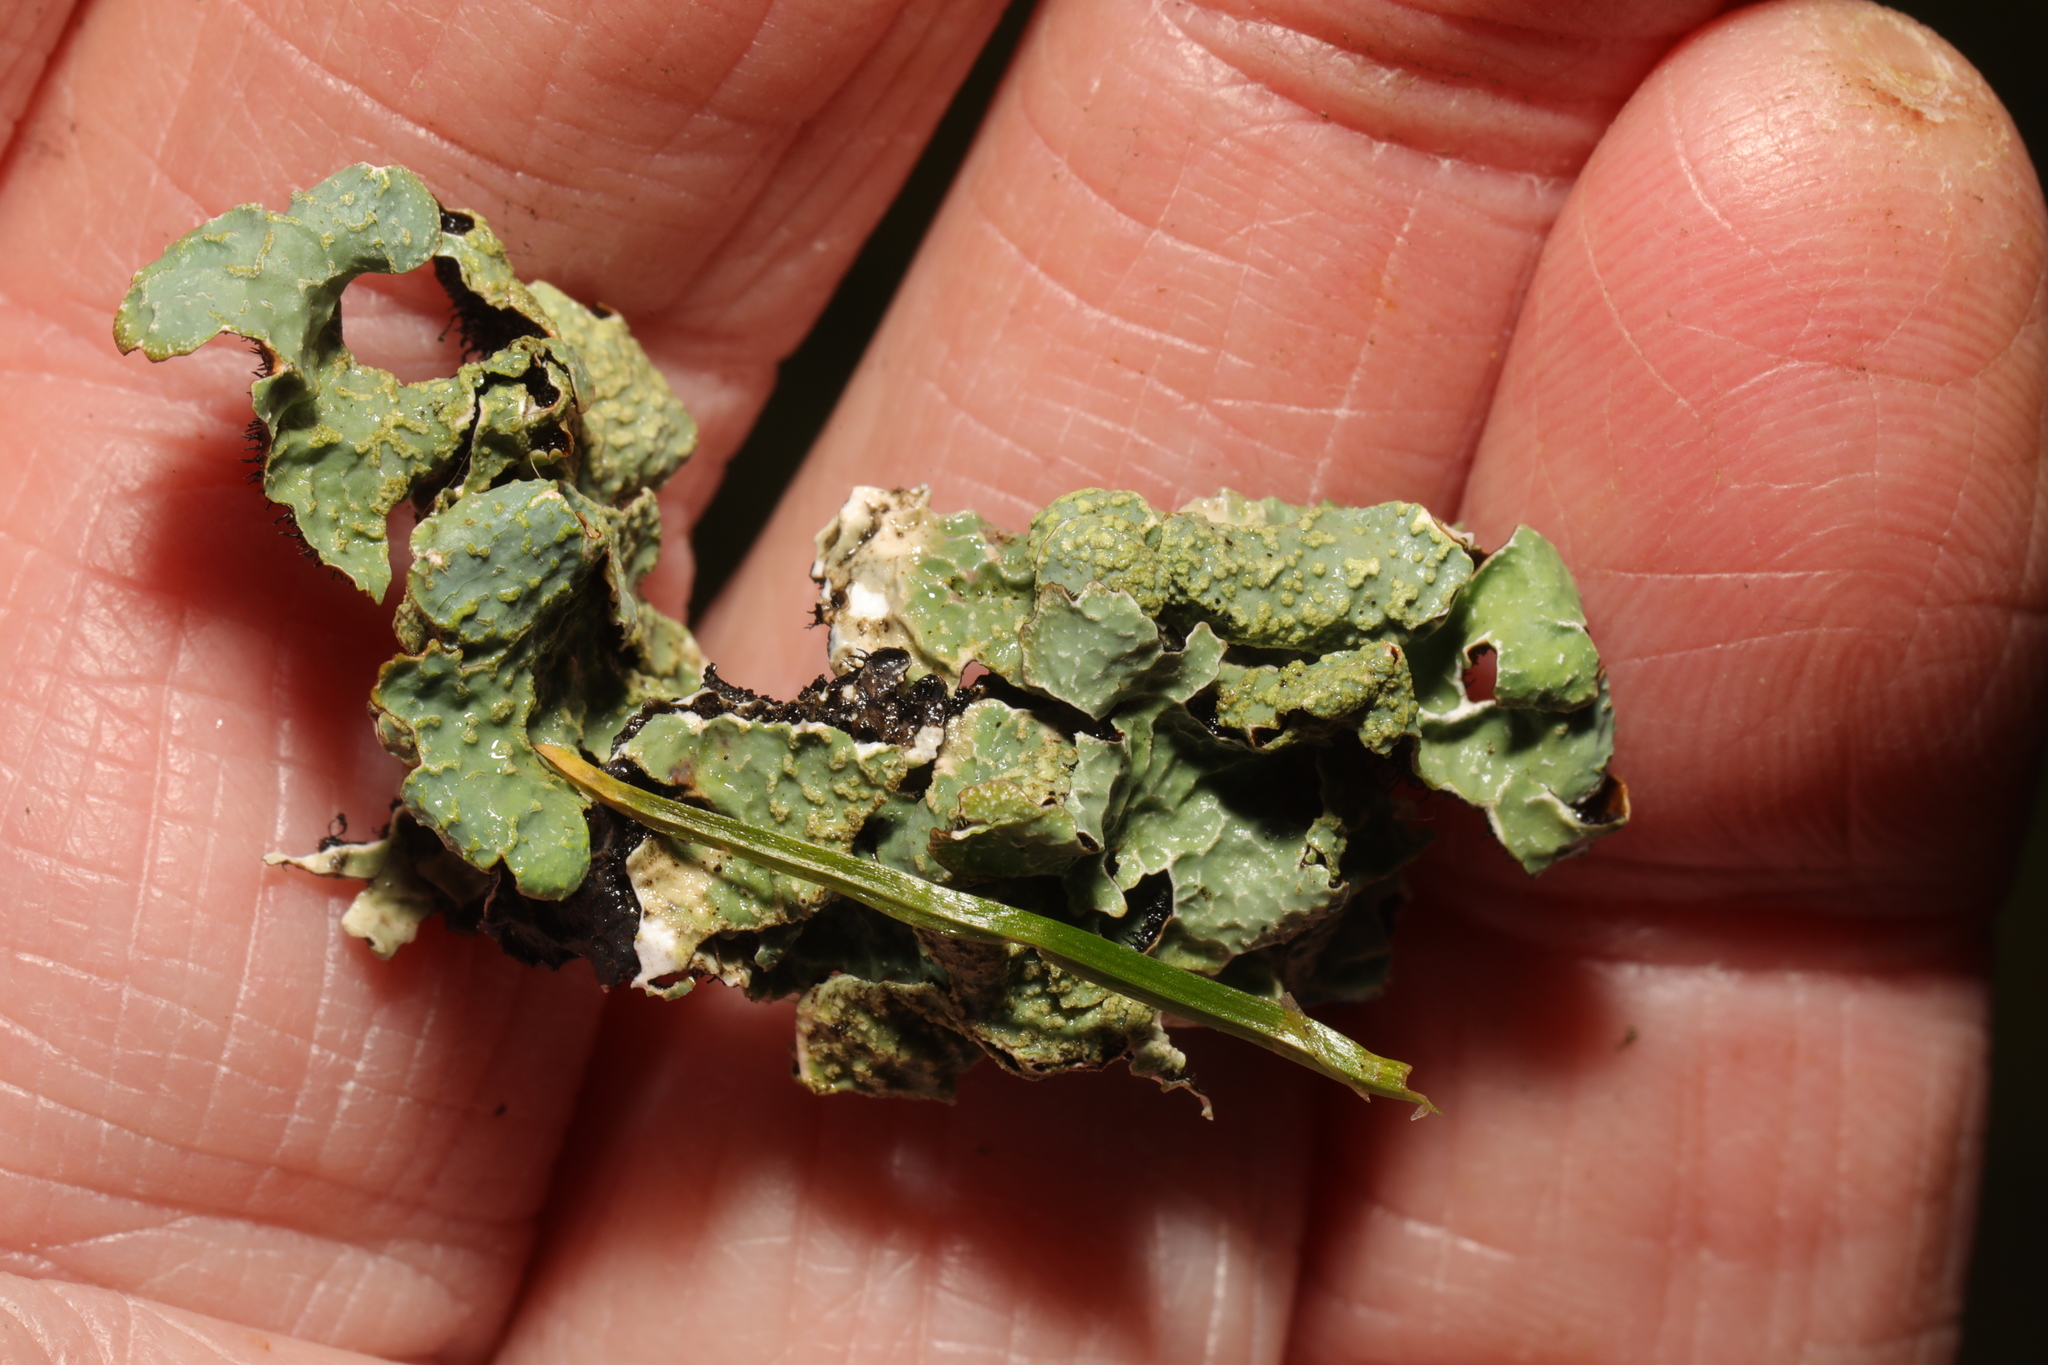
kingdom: Fungi
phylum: Ascomycota
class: Lecanoromycetes
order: Lecanorales
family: Parmeliaceae
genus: Parmelia
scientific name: Parmelia sulcata
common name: Netted shield lichen
